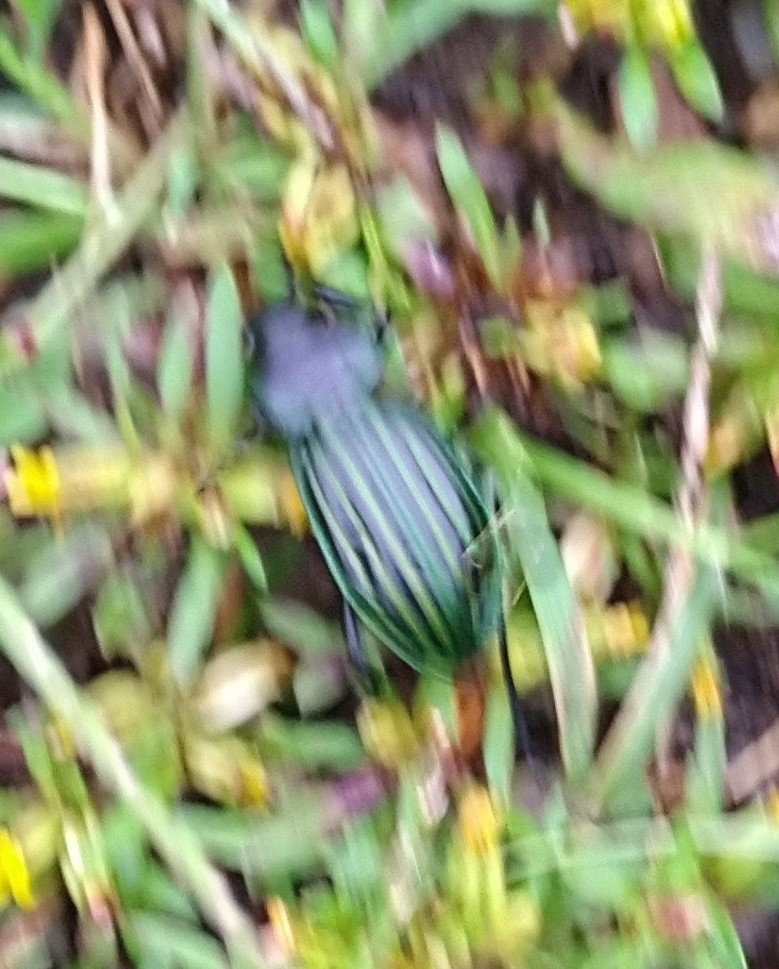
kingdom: Animalia
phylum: Arthropoda
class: Insecta
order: Coleoptera
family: Carabidae
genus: Calosoma
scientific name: Calosoma viridisulcatum
